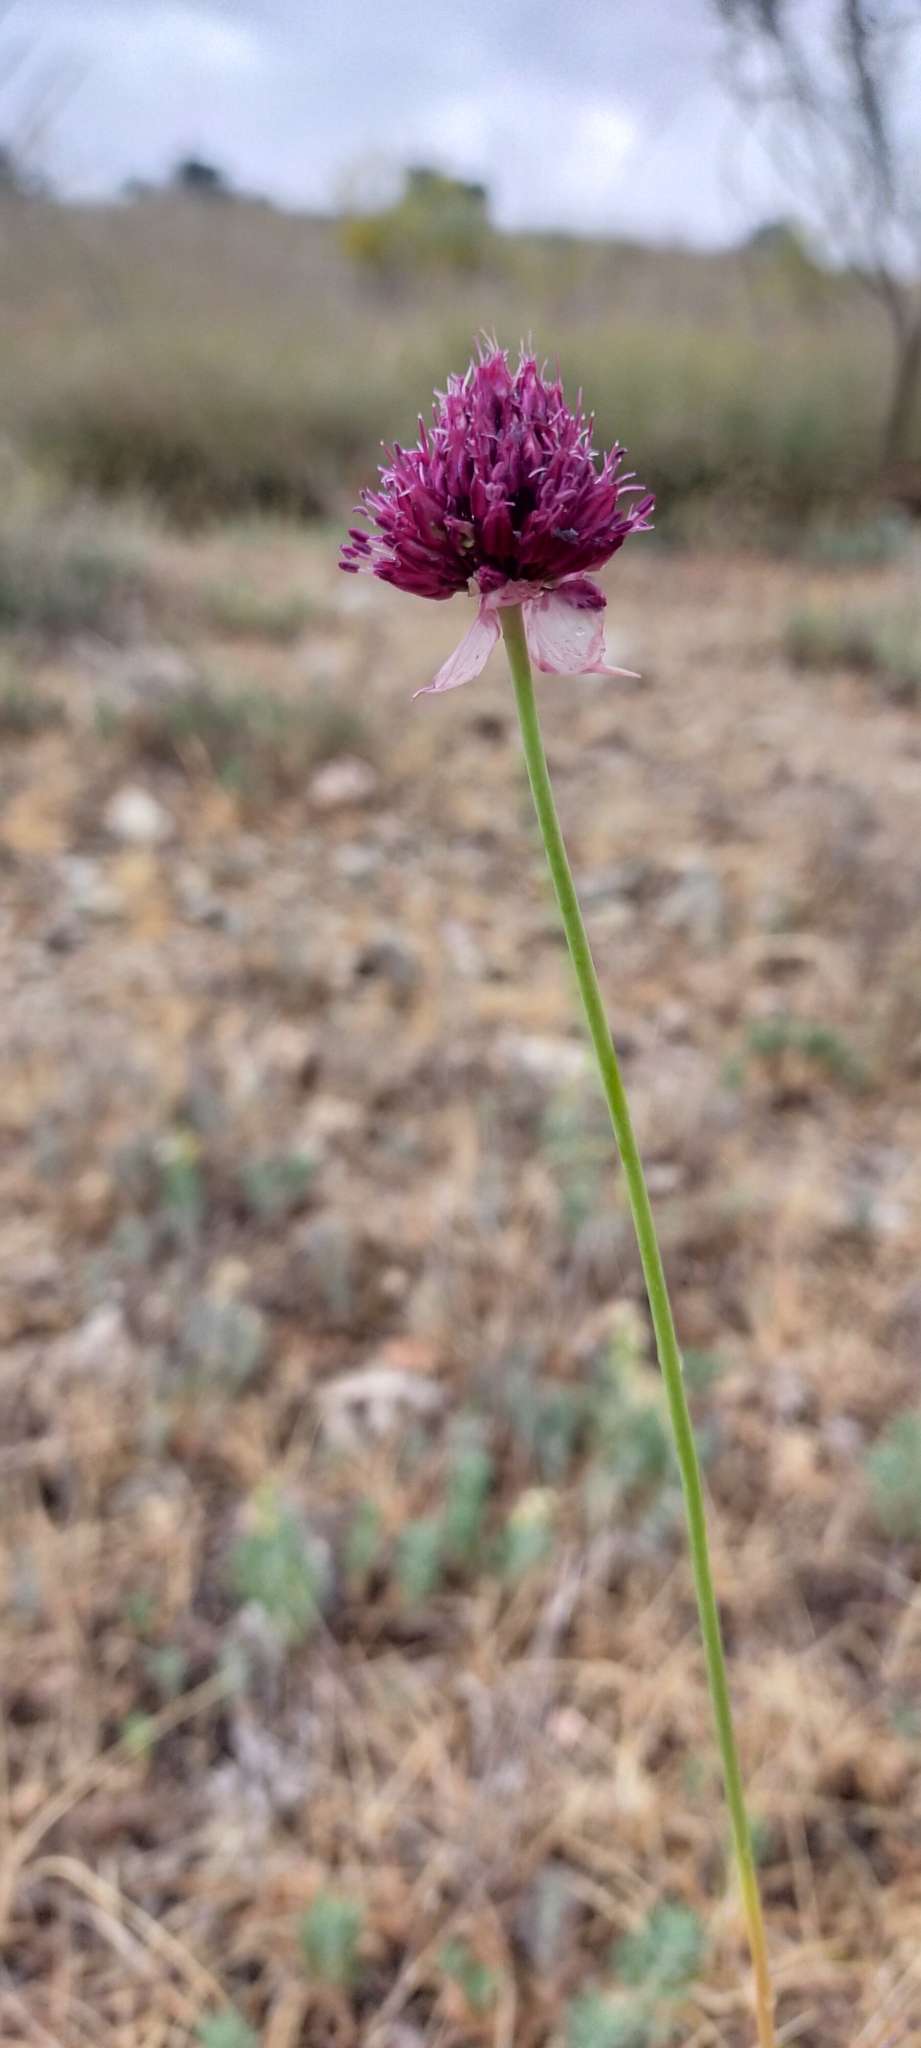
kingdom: Plantae
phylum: Tracheophyta
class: Liliopsida
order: Asparagales
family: Amaryllidaceae
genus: Allium
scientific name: Allium sphaerocephalon
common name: Round-headed leek
